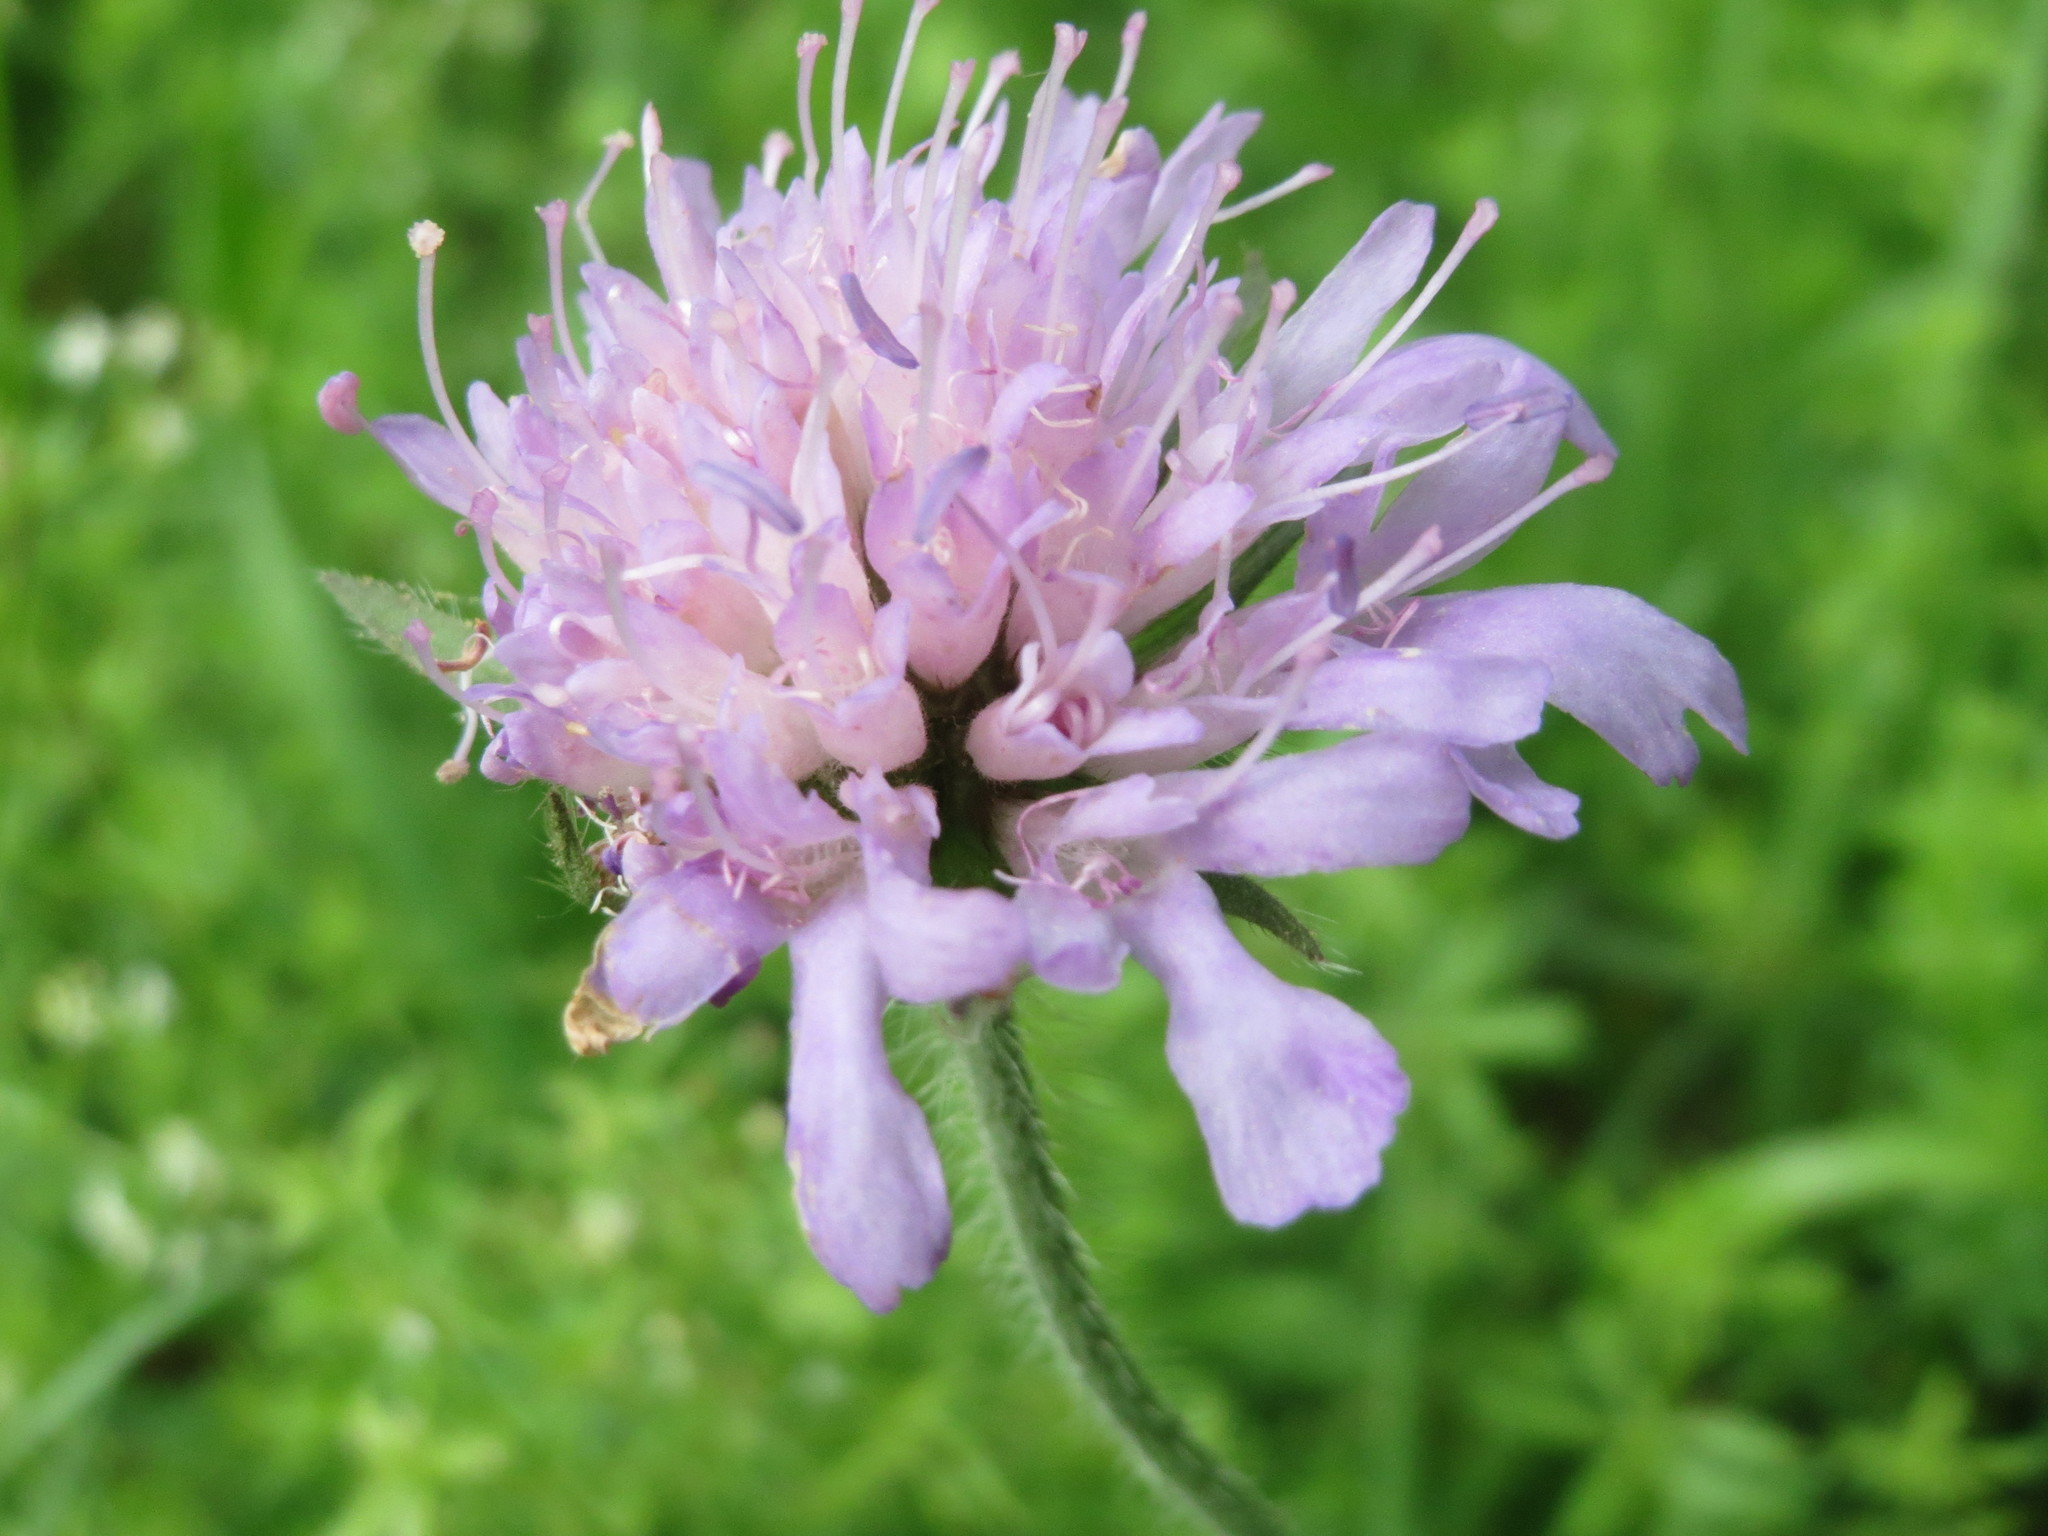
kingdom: Plantae
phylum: Tracheophyta
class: Magnoliopsida
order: Dipsacales
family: Caprifoliaceae
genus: Knautia
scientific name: Knautia arvensis
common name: Field scabiosa
